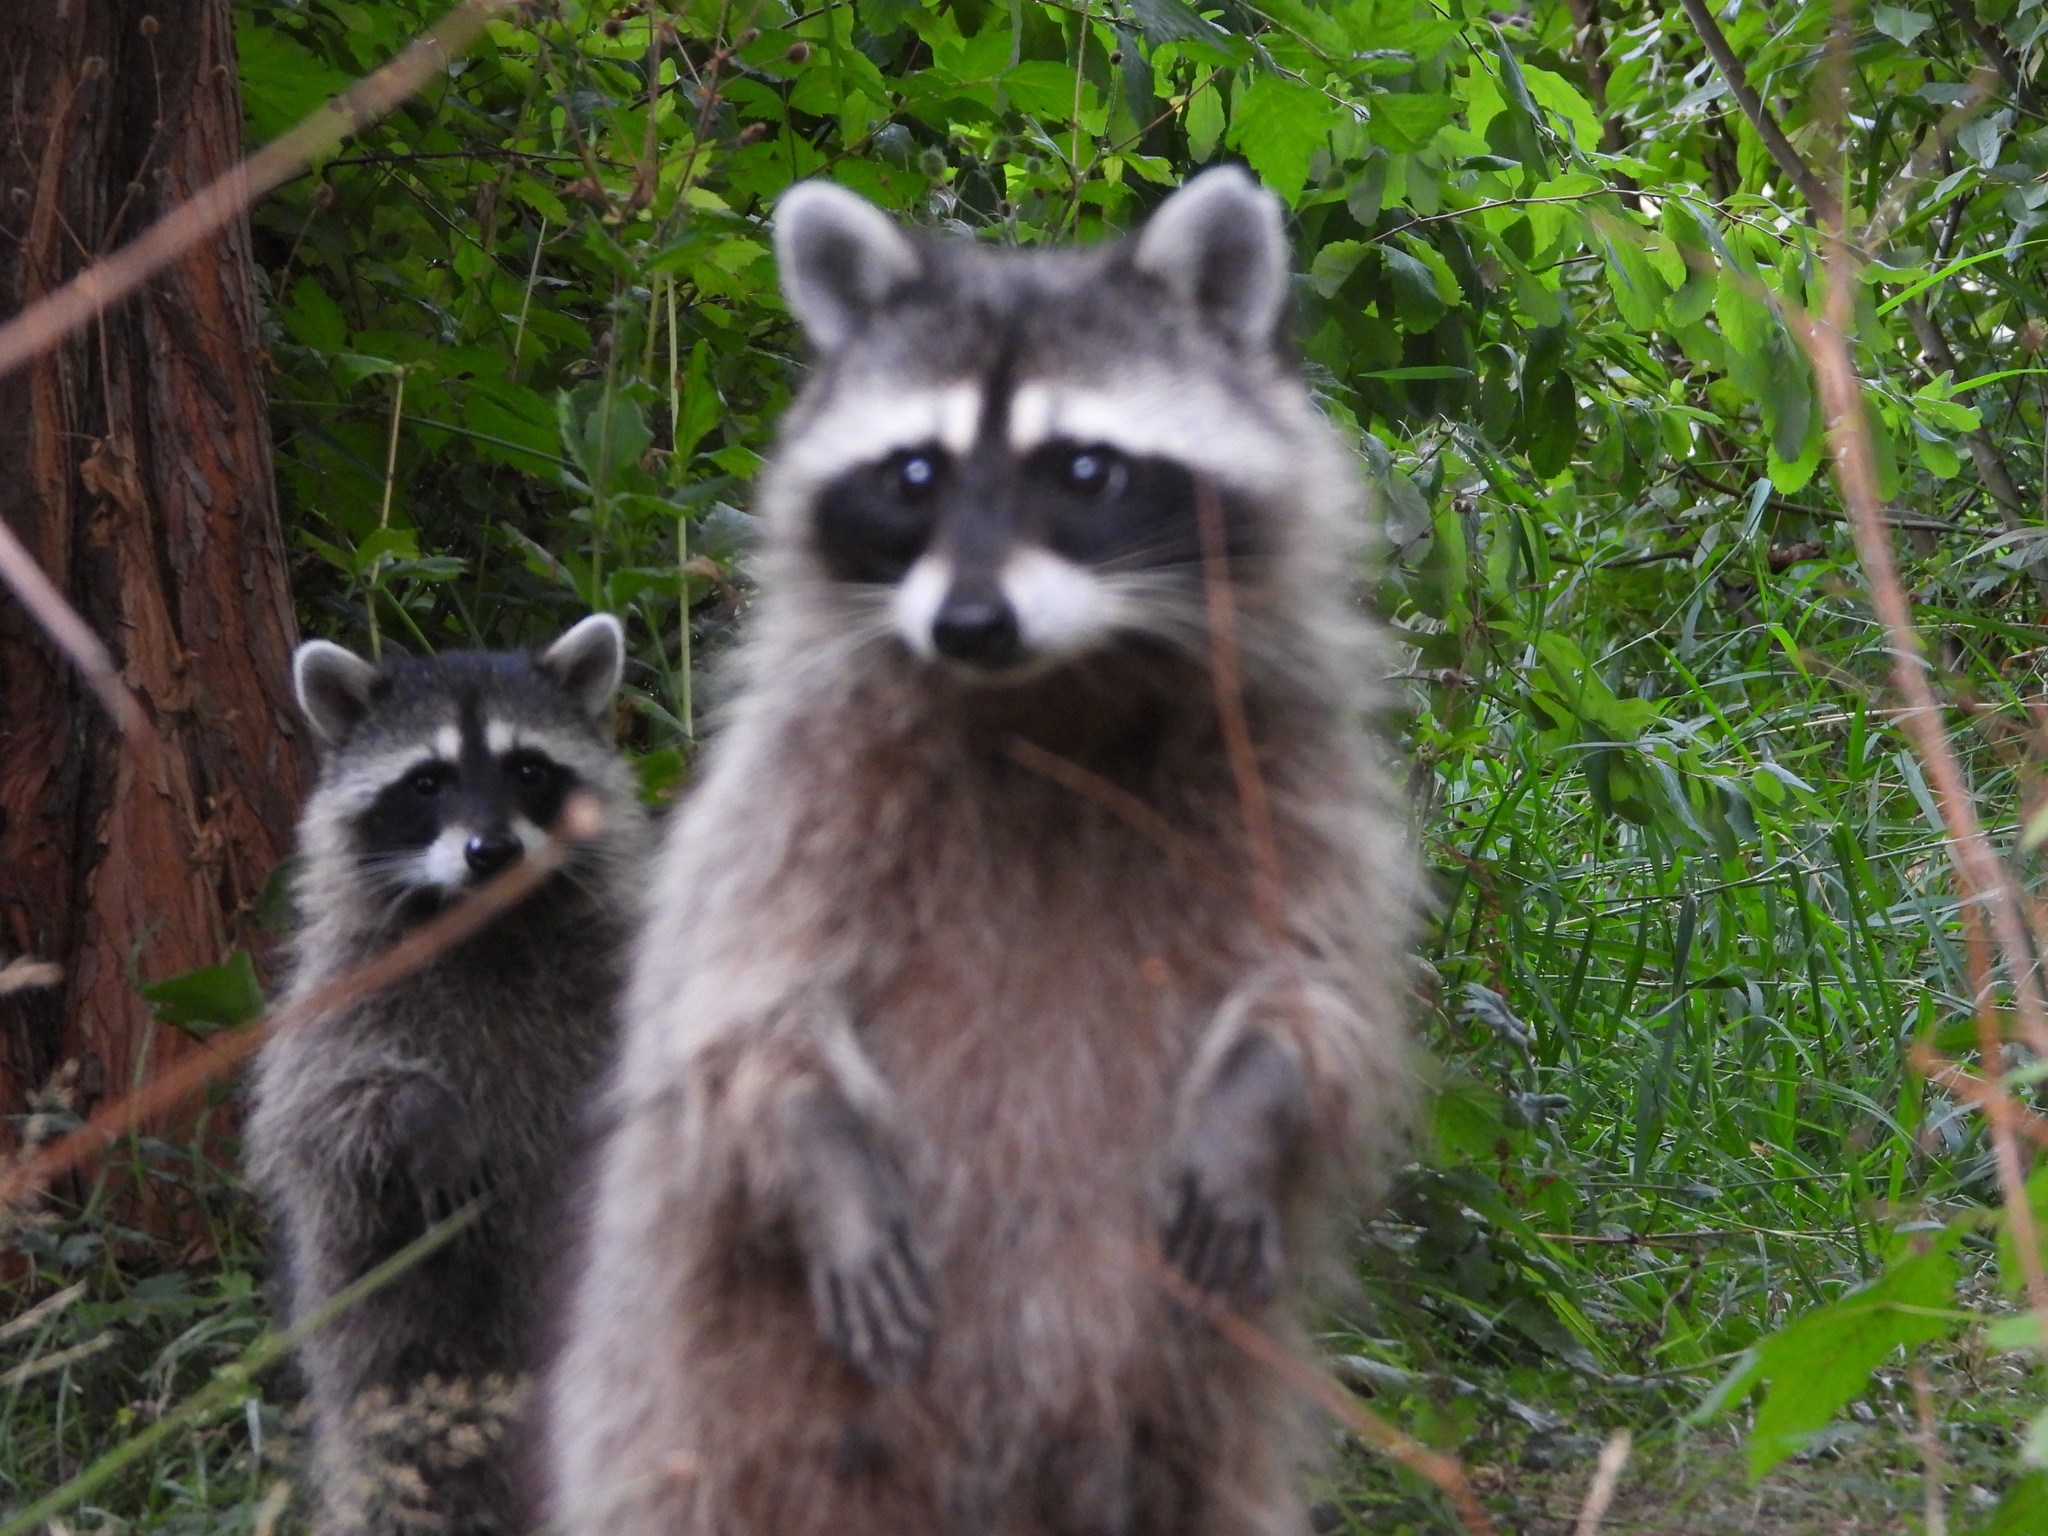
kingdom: Animalia
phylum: Chordata
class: Mammalia
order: Carnivora
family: Procyonidae
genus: Procyon
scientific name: Procyon lotor
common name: Raccoon
